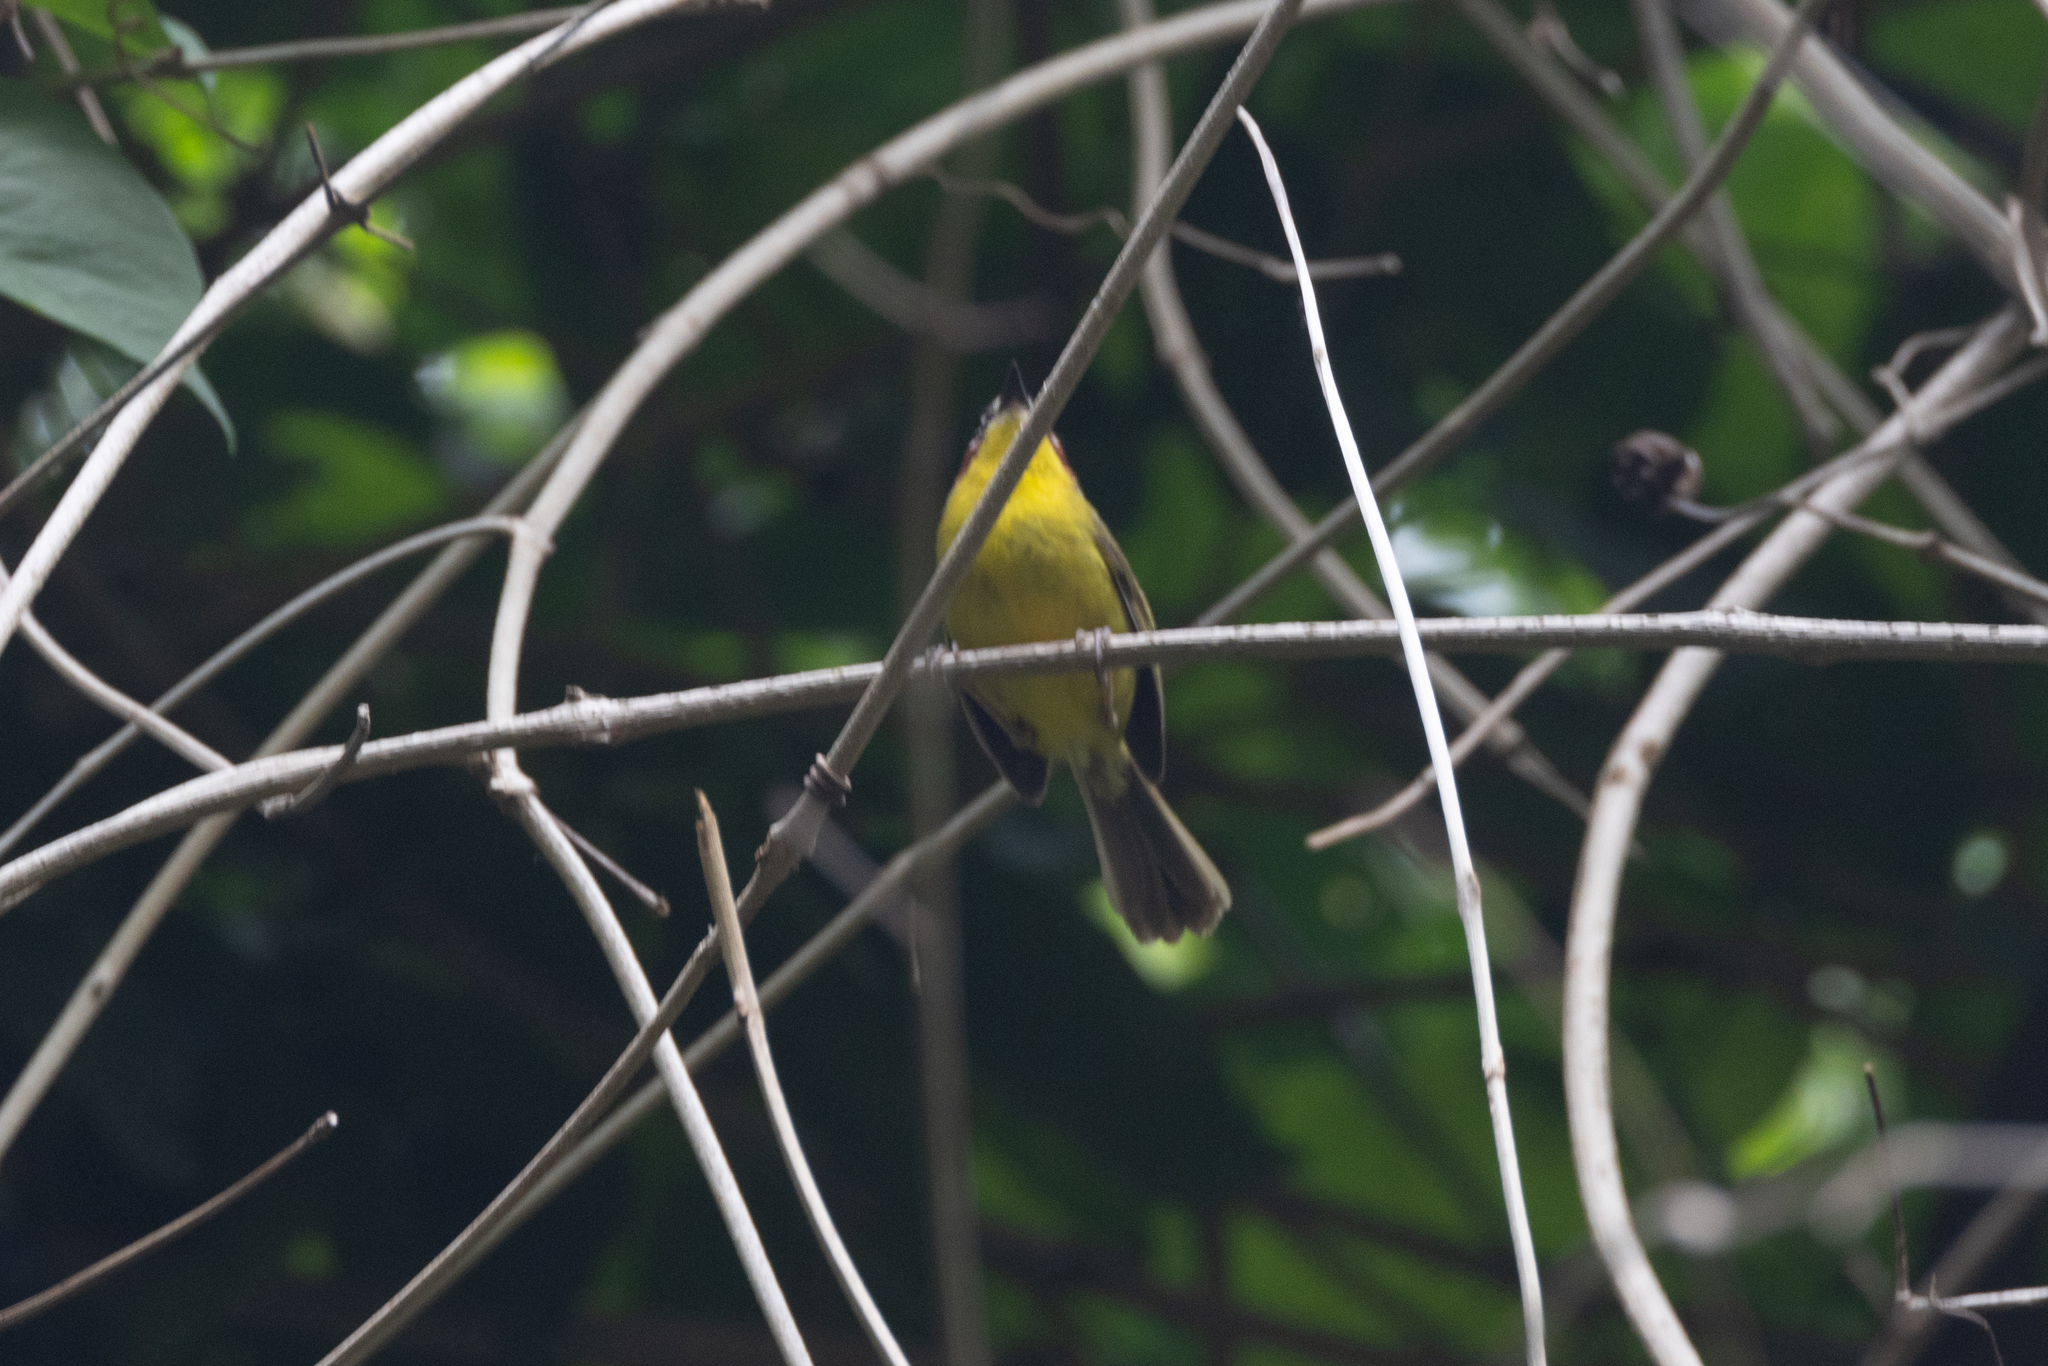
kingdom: Animalia
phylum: Chordata
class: Aves
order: Passeriformes
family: Parulidae
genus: Basileuterus
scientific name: Basileuterus rufifrons
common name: Rufous-capped warbler
